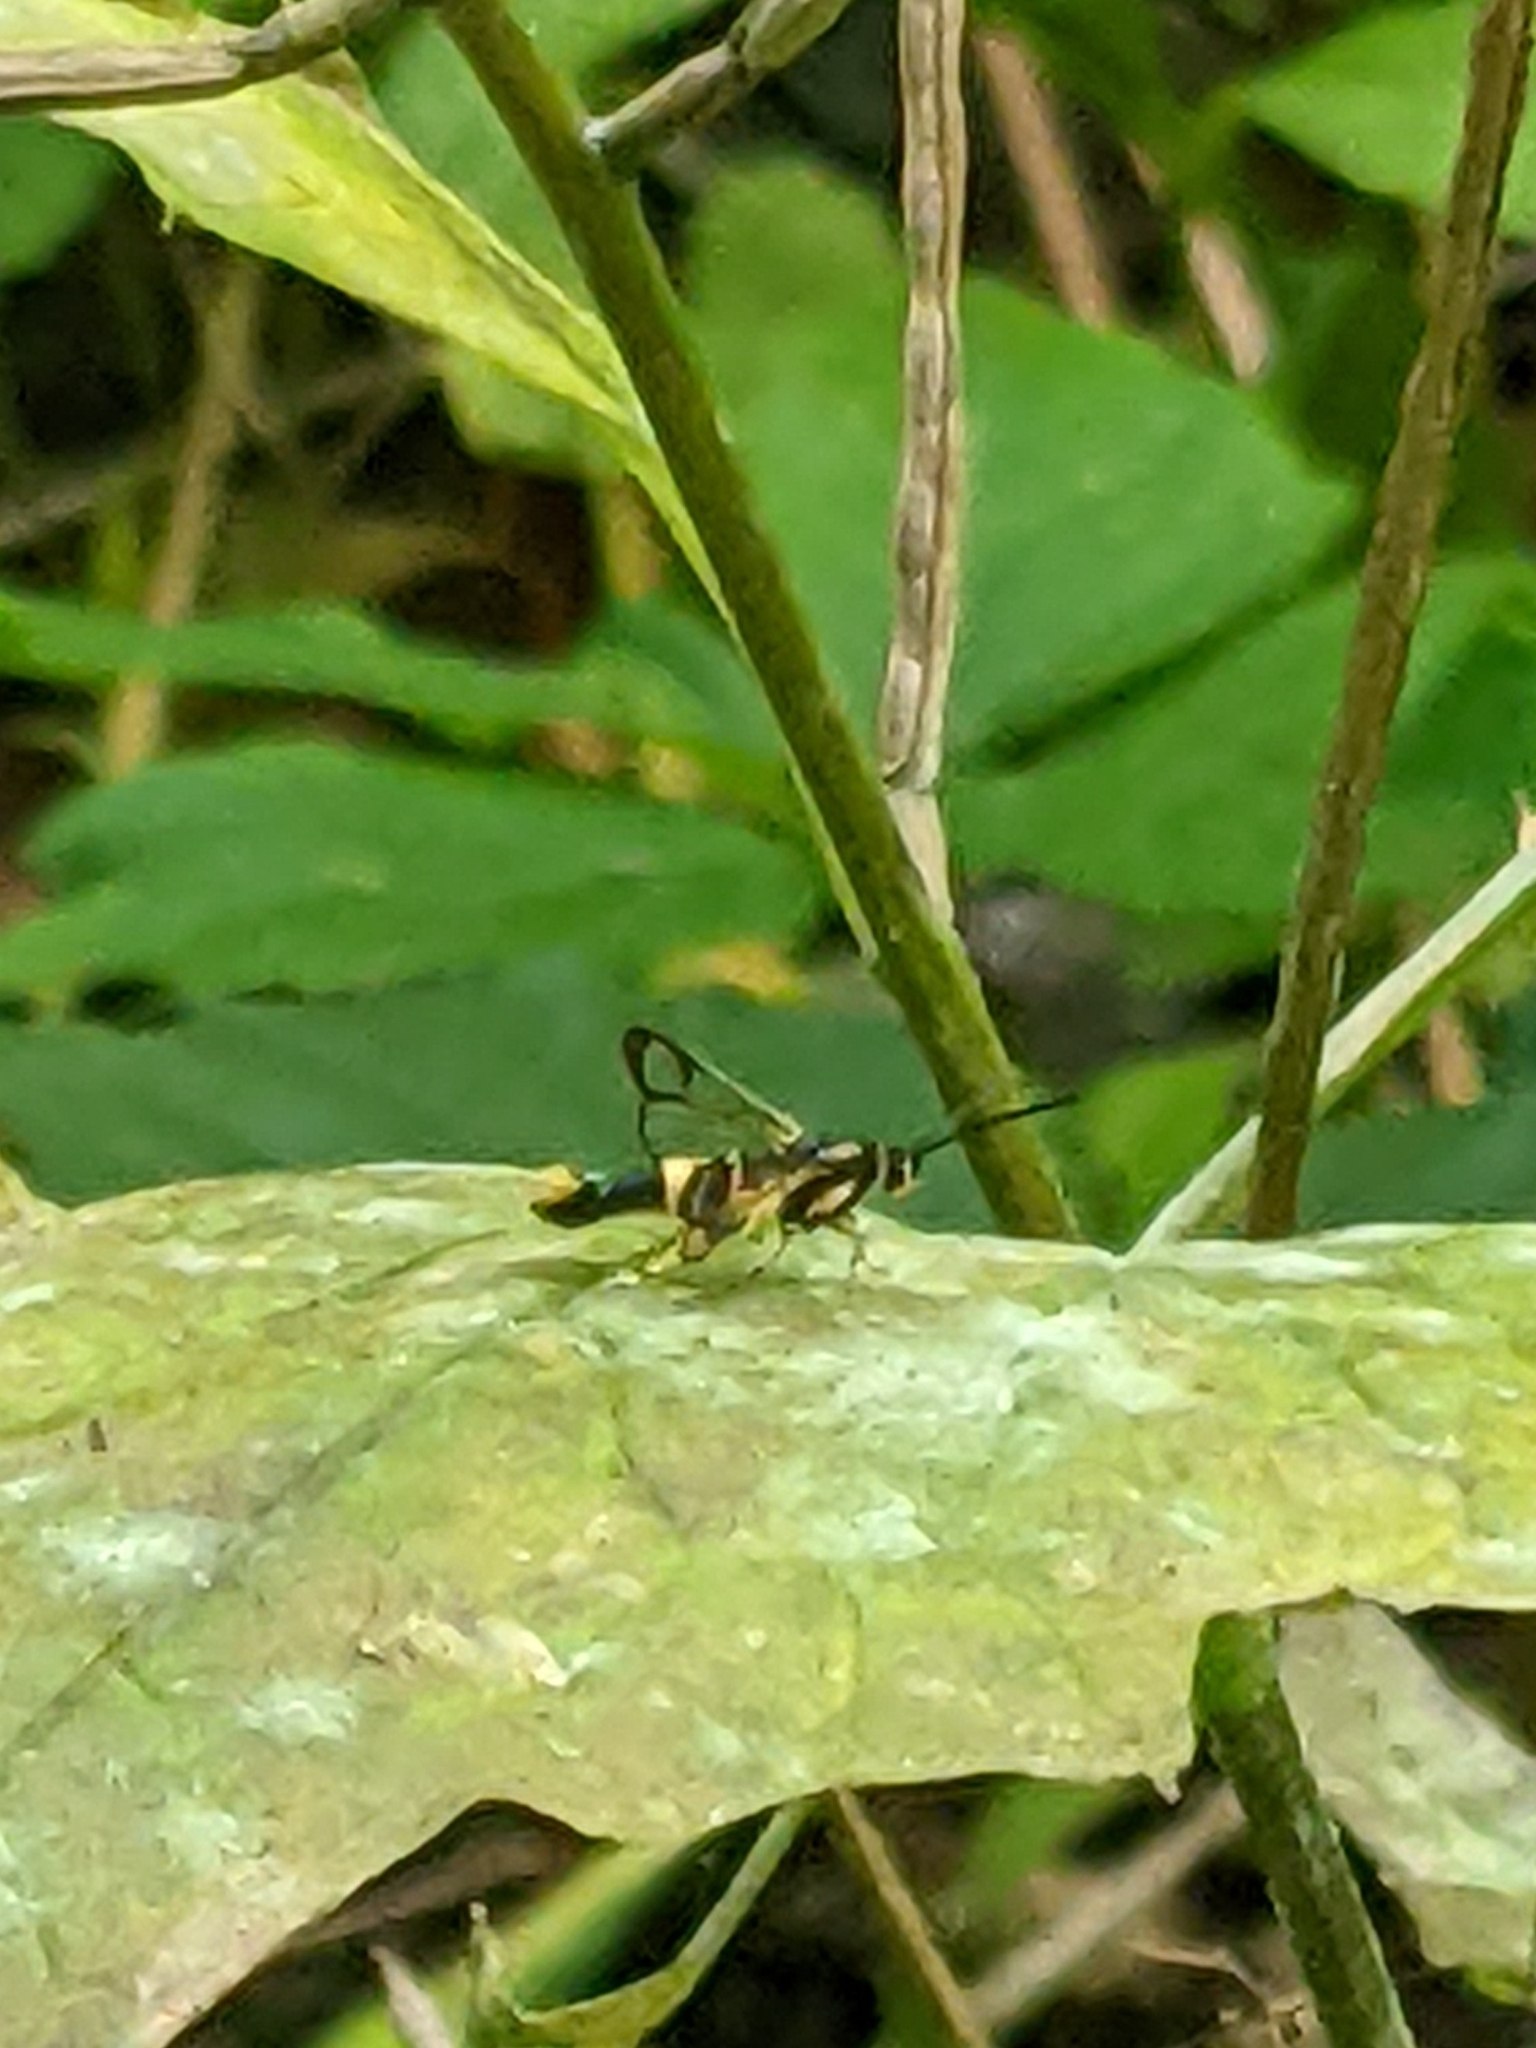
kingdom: Animalia
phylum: Arthropoda
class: Insecta
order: Lepidoptera
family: Sesiidae
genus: Synanthedon
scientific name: Synanthedon scitula
